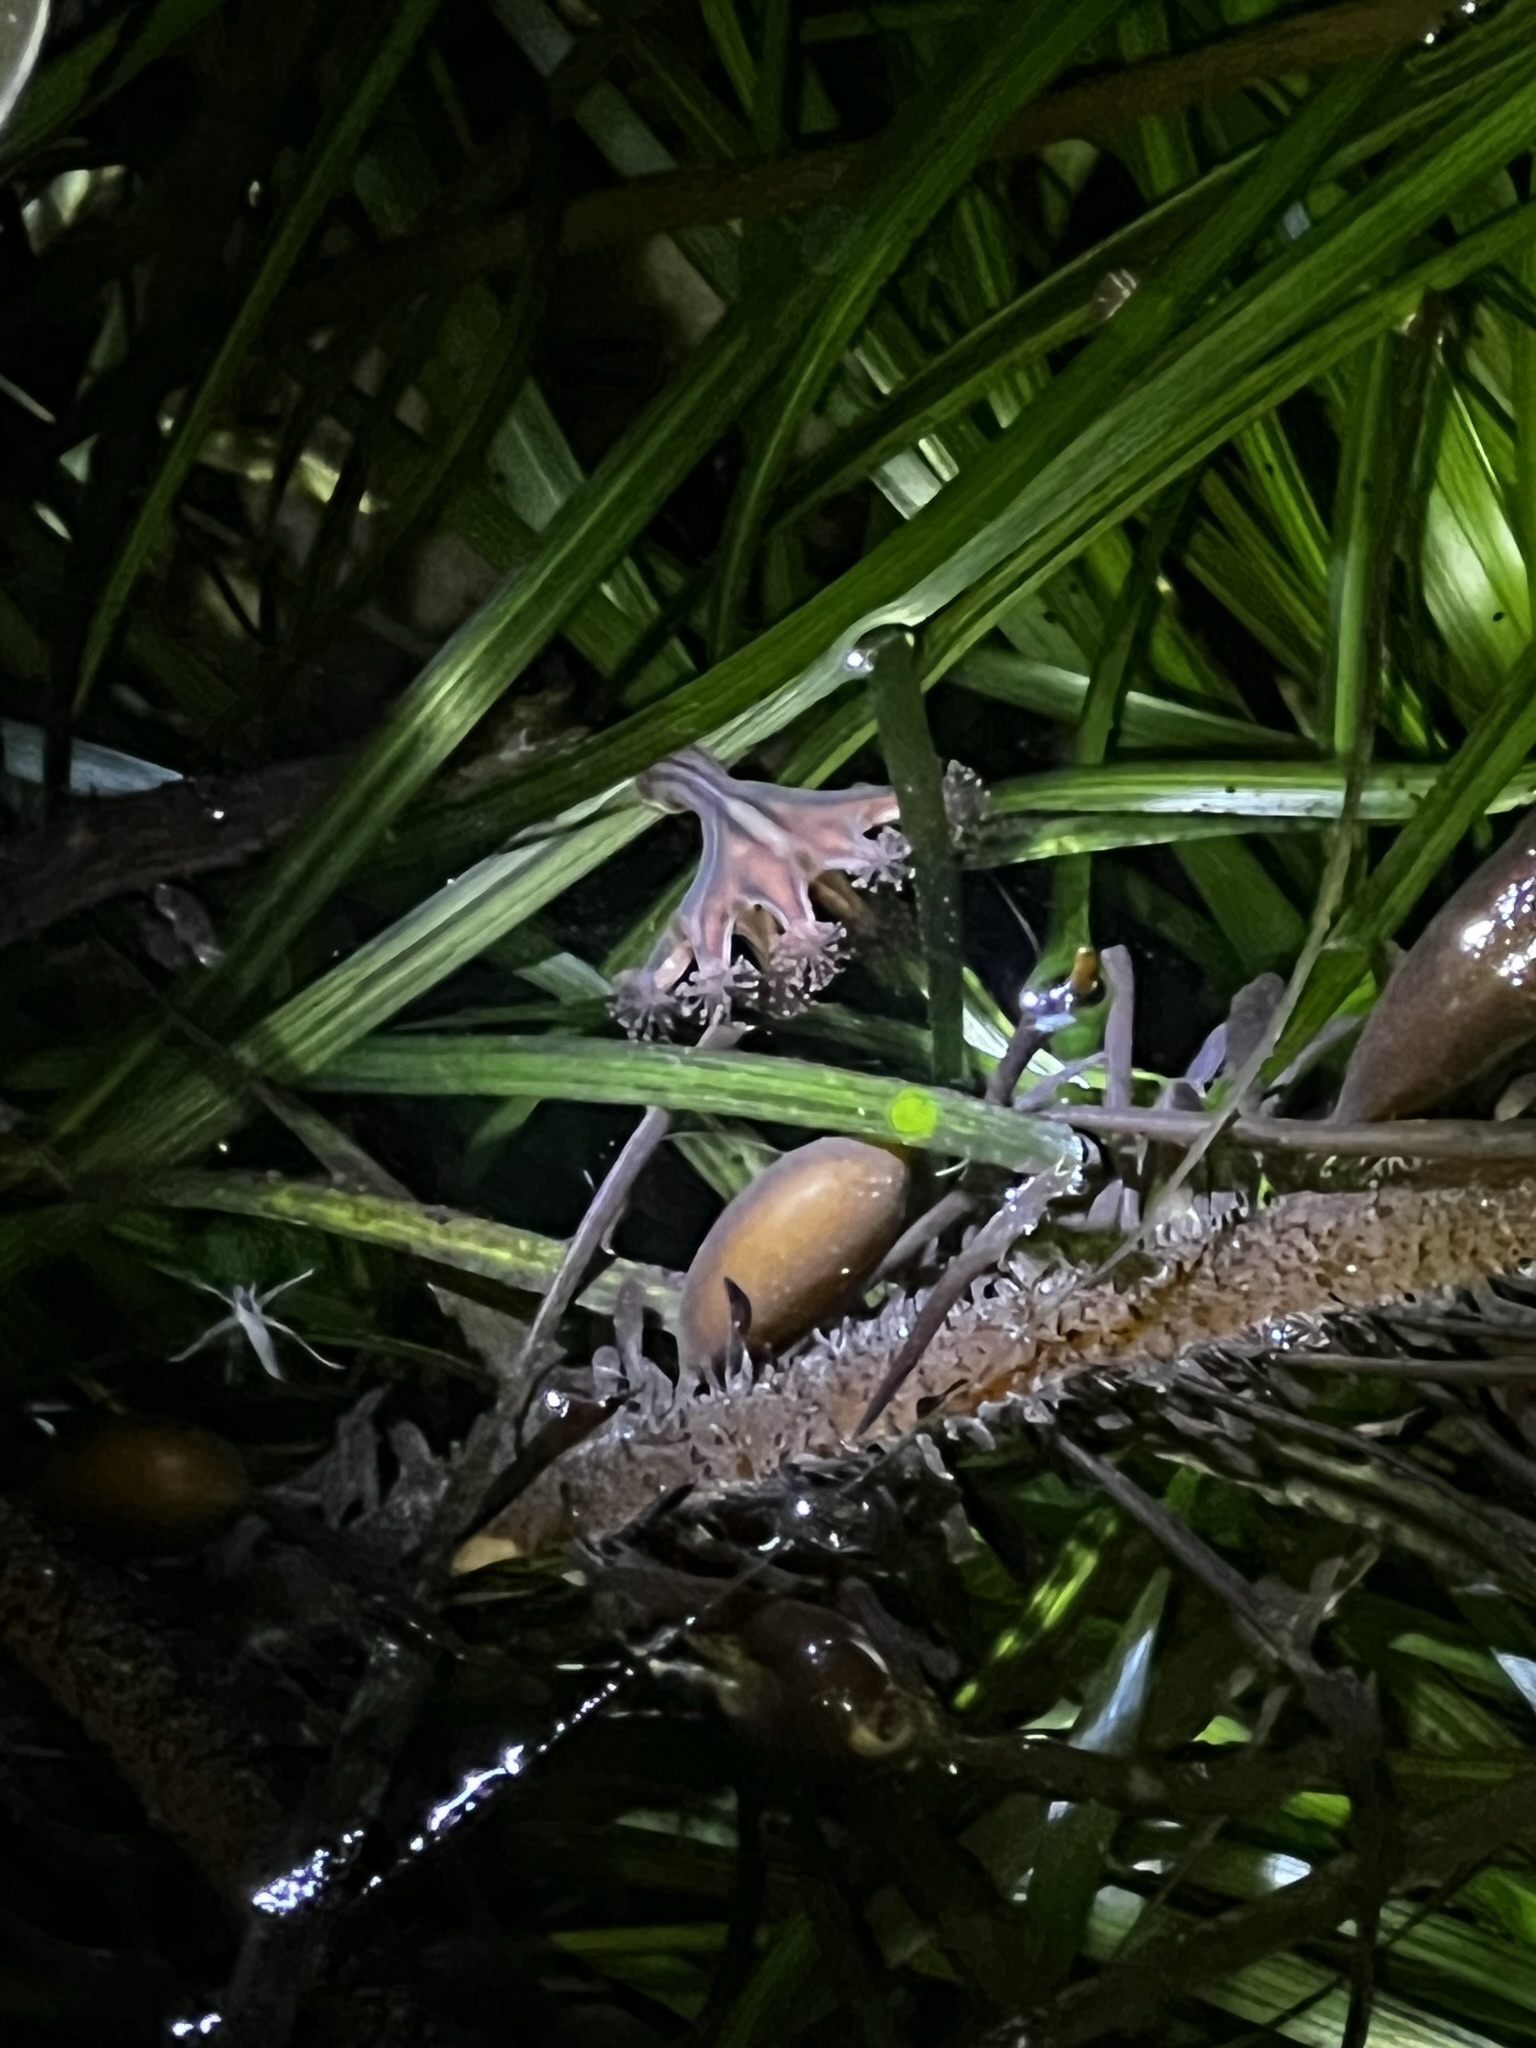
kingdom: Animalia
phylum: Cnidaria
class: Staurozoa
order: Stauromedusae
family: Haliclystidae
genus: Haliclystus
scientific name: Haliclystus sanjuanensis
